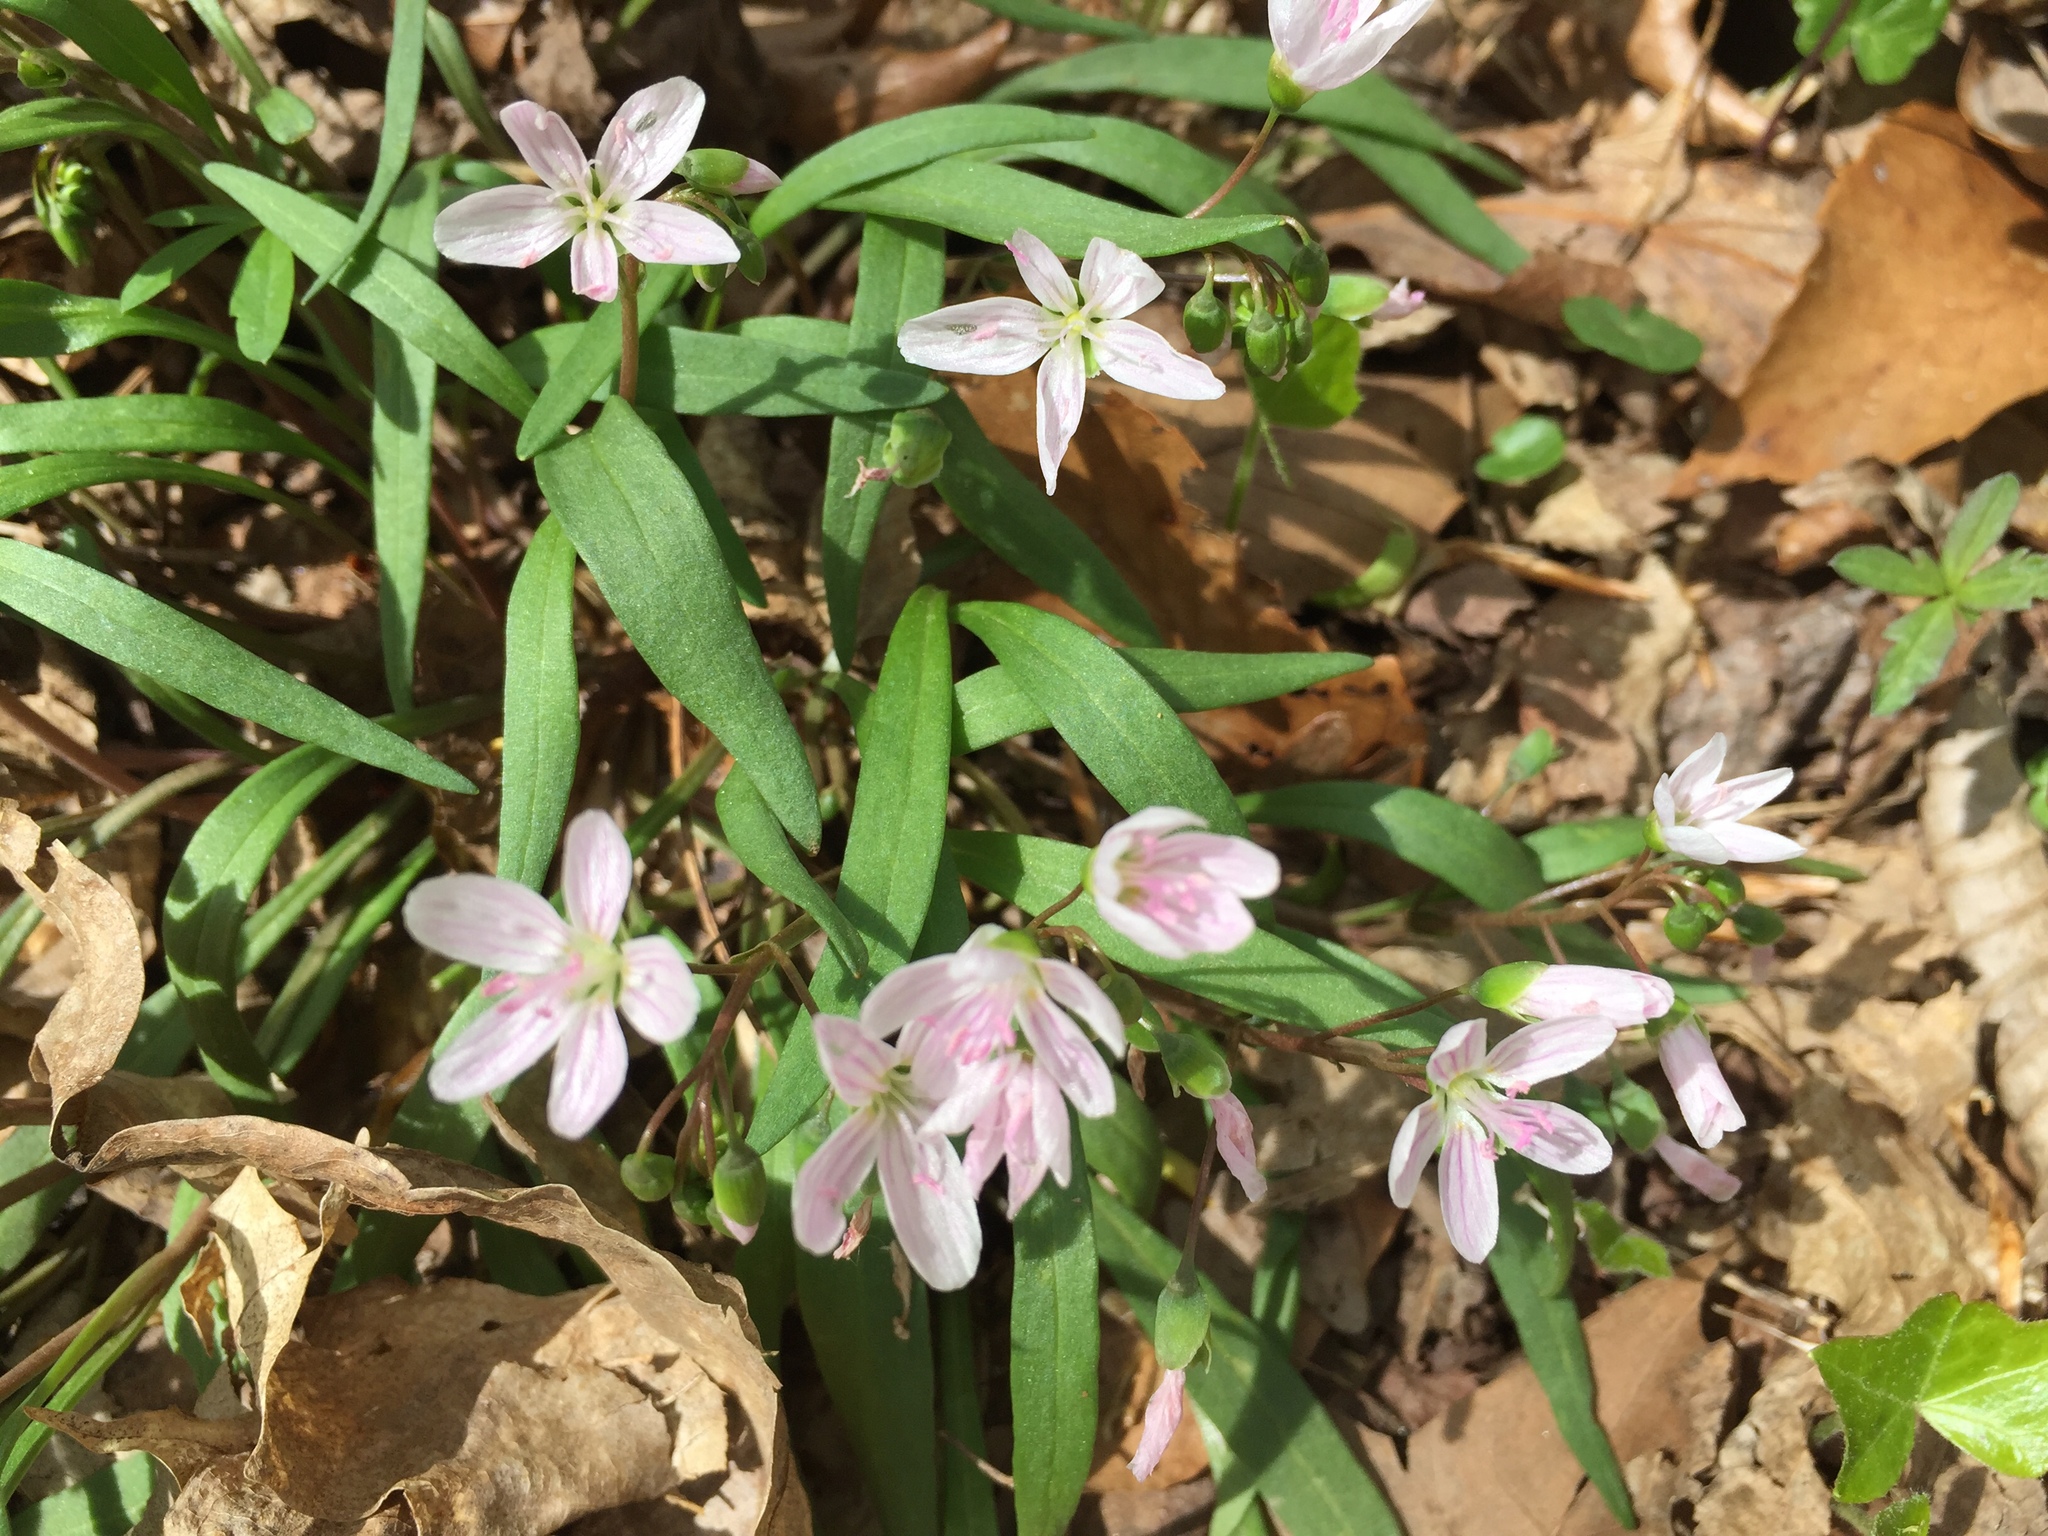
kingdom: Plantae
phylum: Tracheophyta
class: Magnoliopsida
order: Caryophyllales
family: Montiaceae
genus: Claytonia
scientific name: Claytonia virginica
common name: Virginia springbeauty
